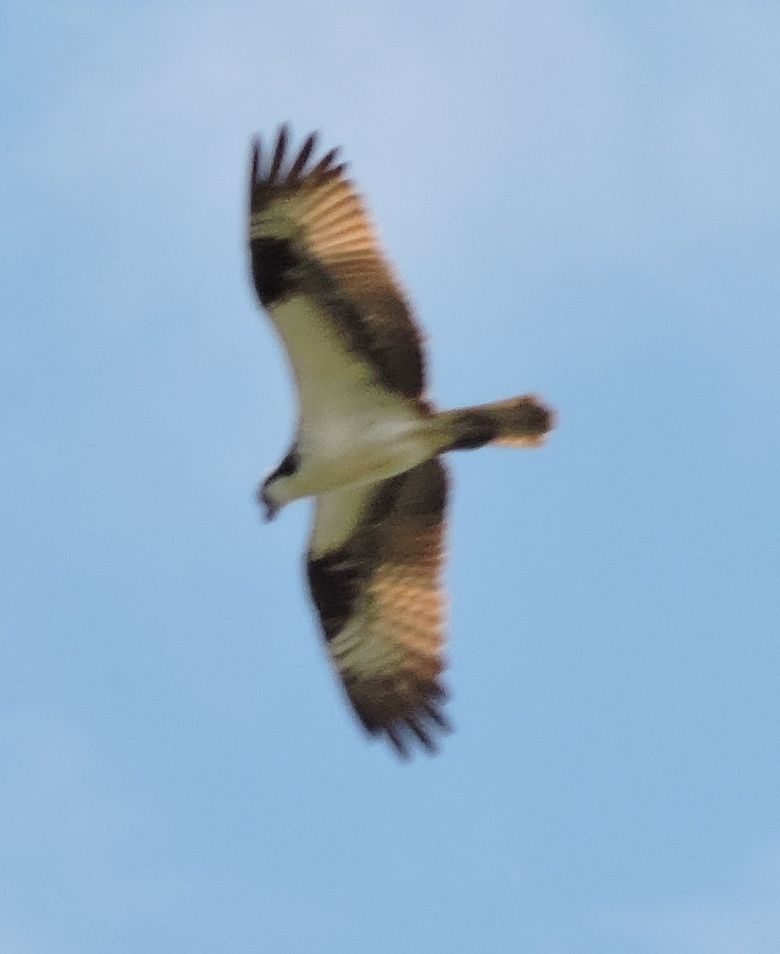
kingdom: Animalia
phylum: Chordata
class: Aves
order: Accipitriformes
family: Pandionidae
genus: Pandion
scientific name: Pandion haliaetus
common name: Osprey
